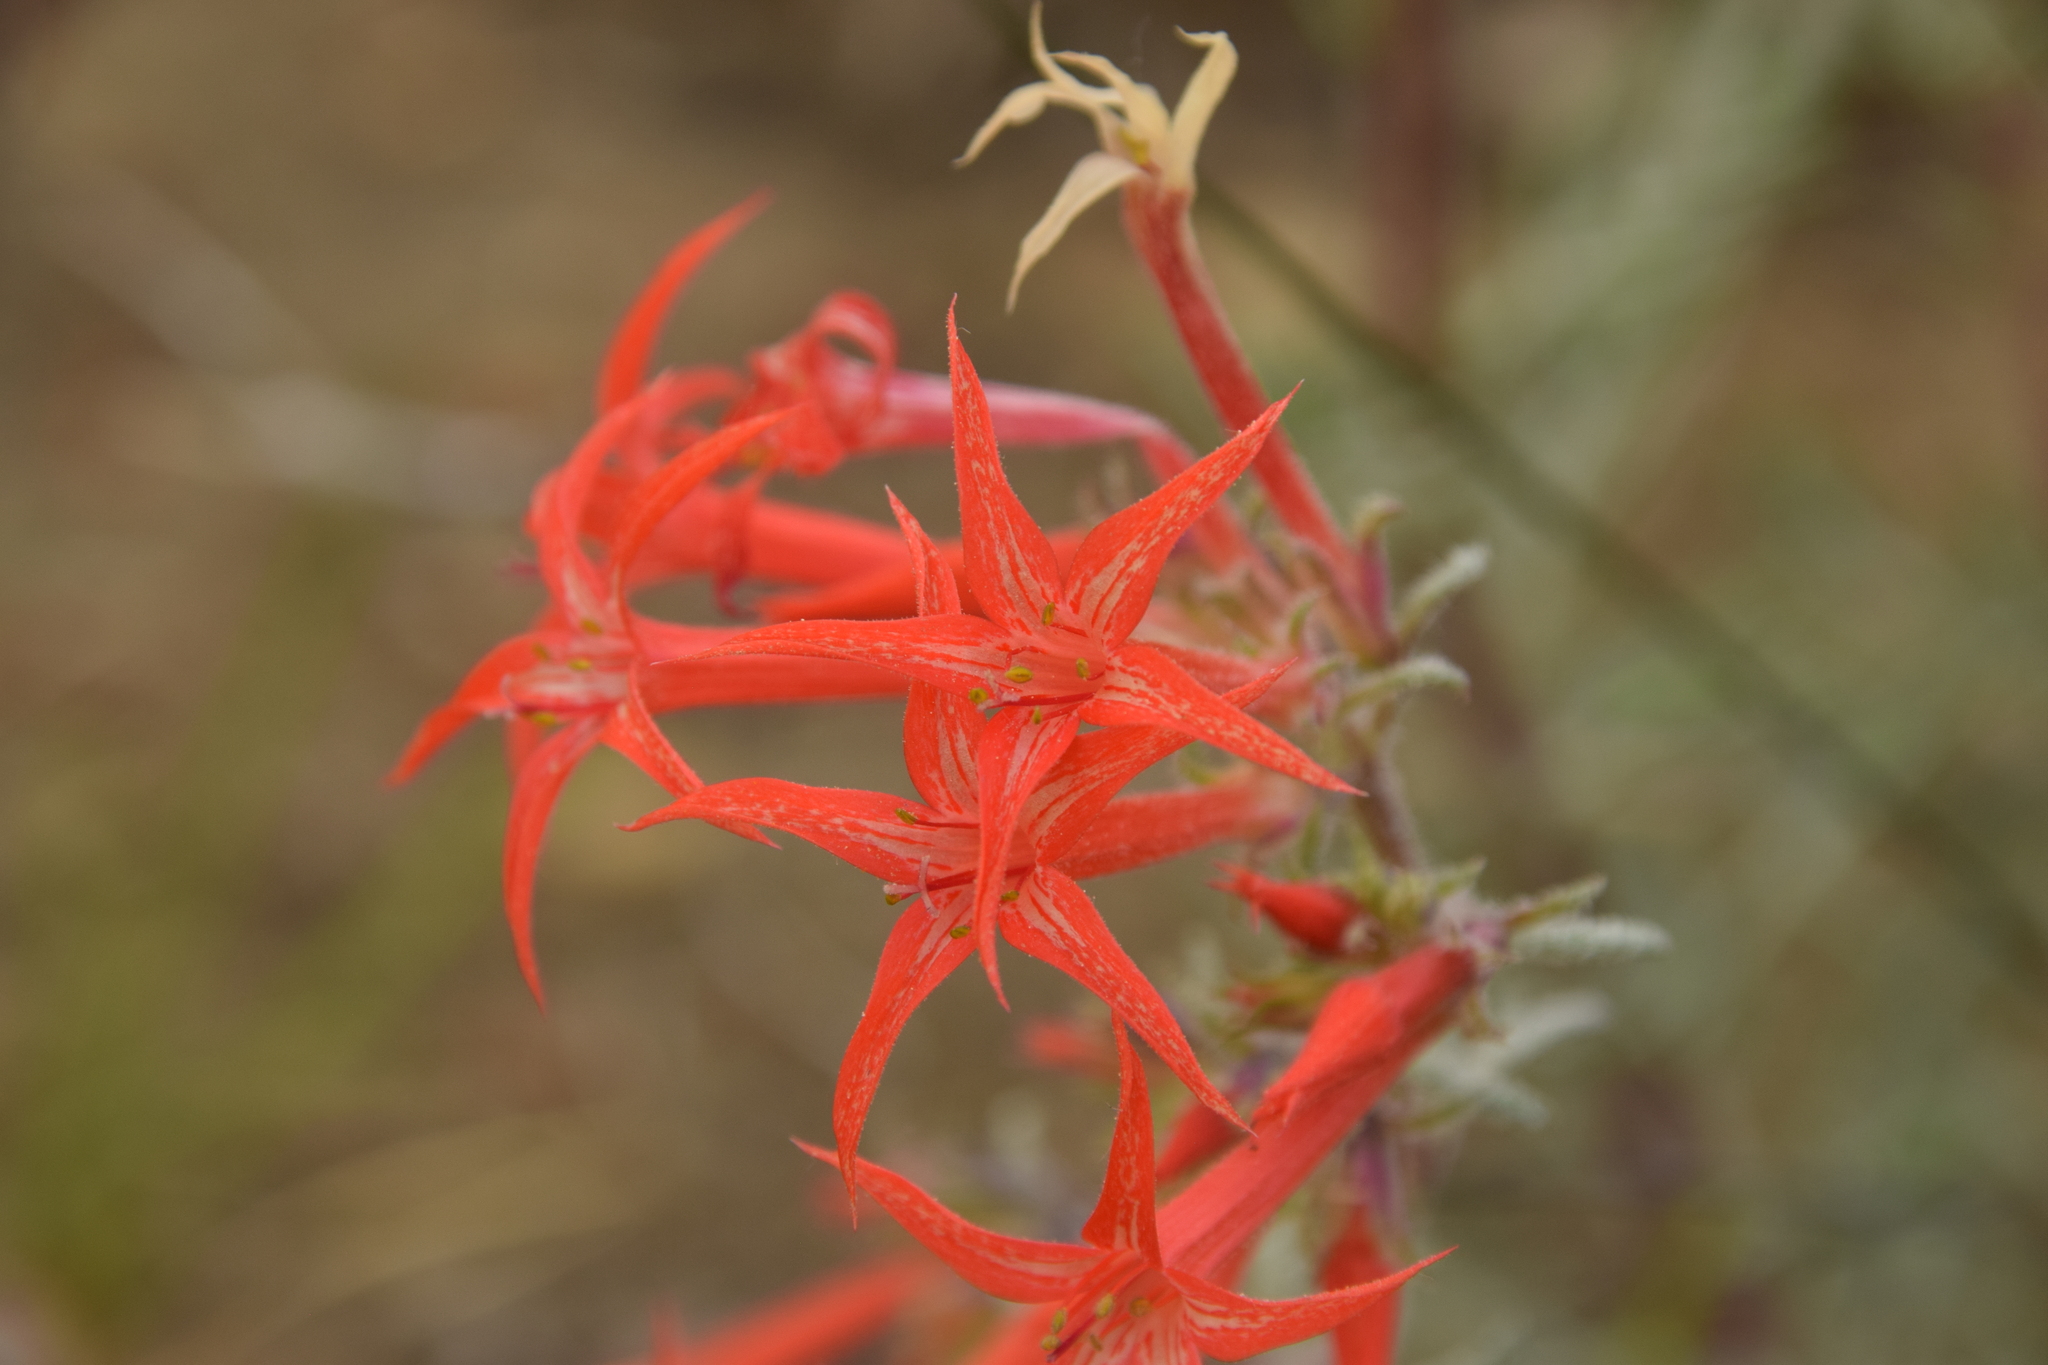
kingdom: Plantae
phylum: Tracheophyta
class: Magnoliopsida
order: Ericales
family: Polemoniaceae
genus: Ipomopsis
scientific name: Ipomopsis aggregata
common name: Scarlet gilia
